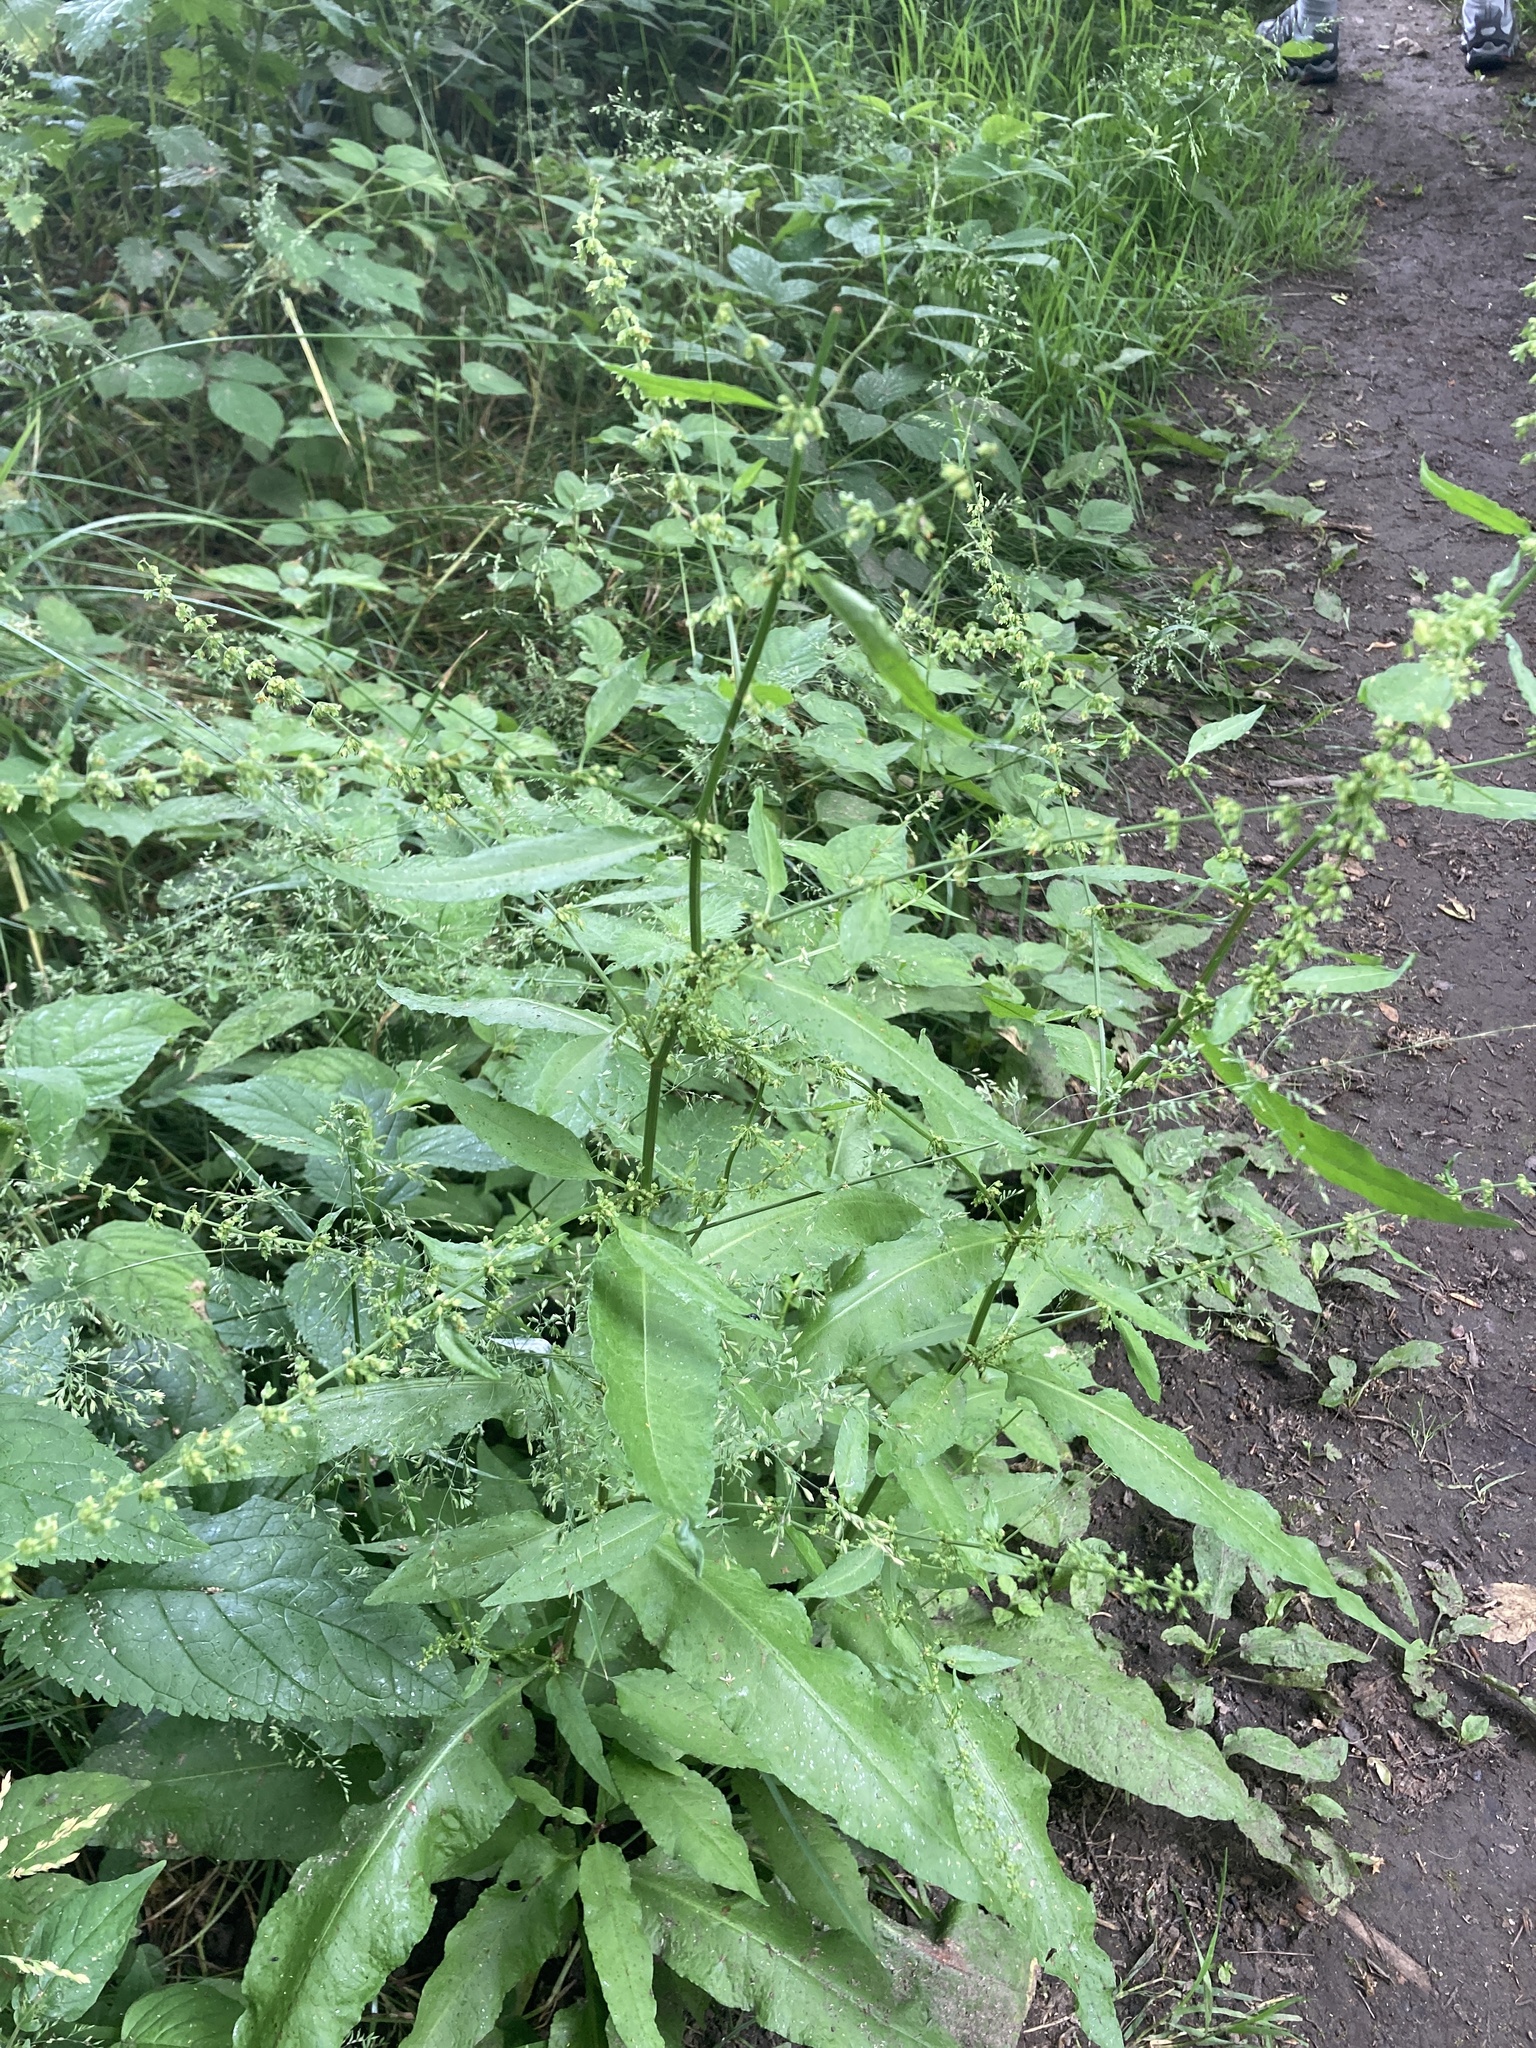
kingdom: Plantae
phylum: Tracheophyta
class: Magnoliopsida
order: Caryophyllales
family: Polygonaceae
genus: Rumex
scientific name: Rumex sanguineus
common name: Wood dock
